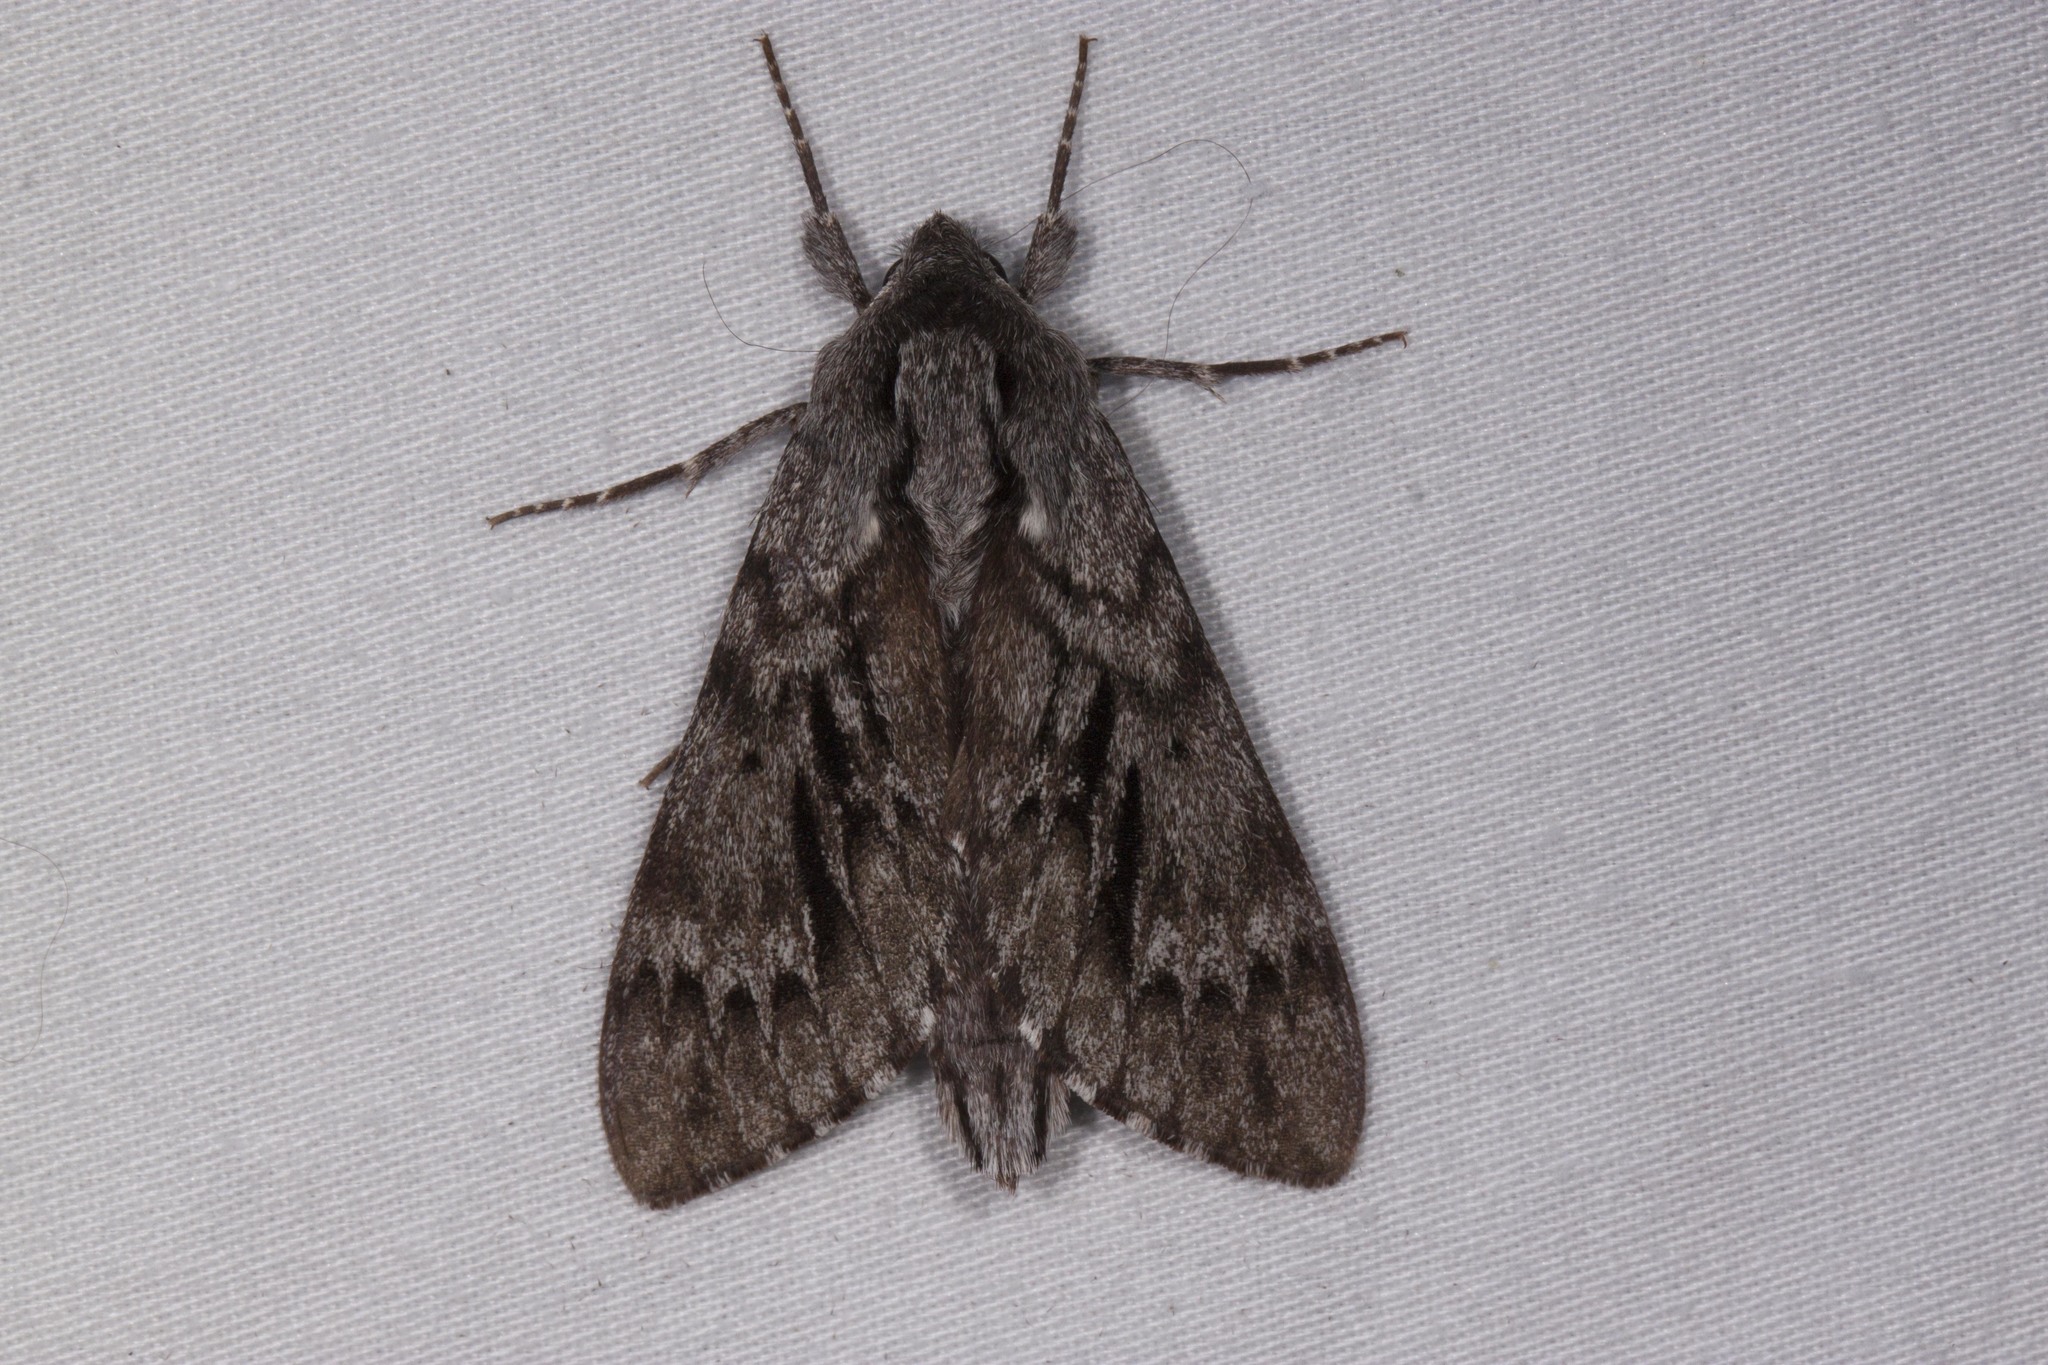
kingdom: Animalia
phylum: Arthropoda
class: Insecta
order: Lepidoptera
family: Sphingidae
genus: Lapara
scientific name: Lapara bombycoides
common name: Northern pine sphinx
